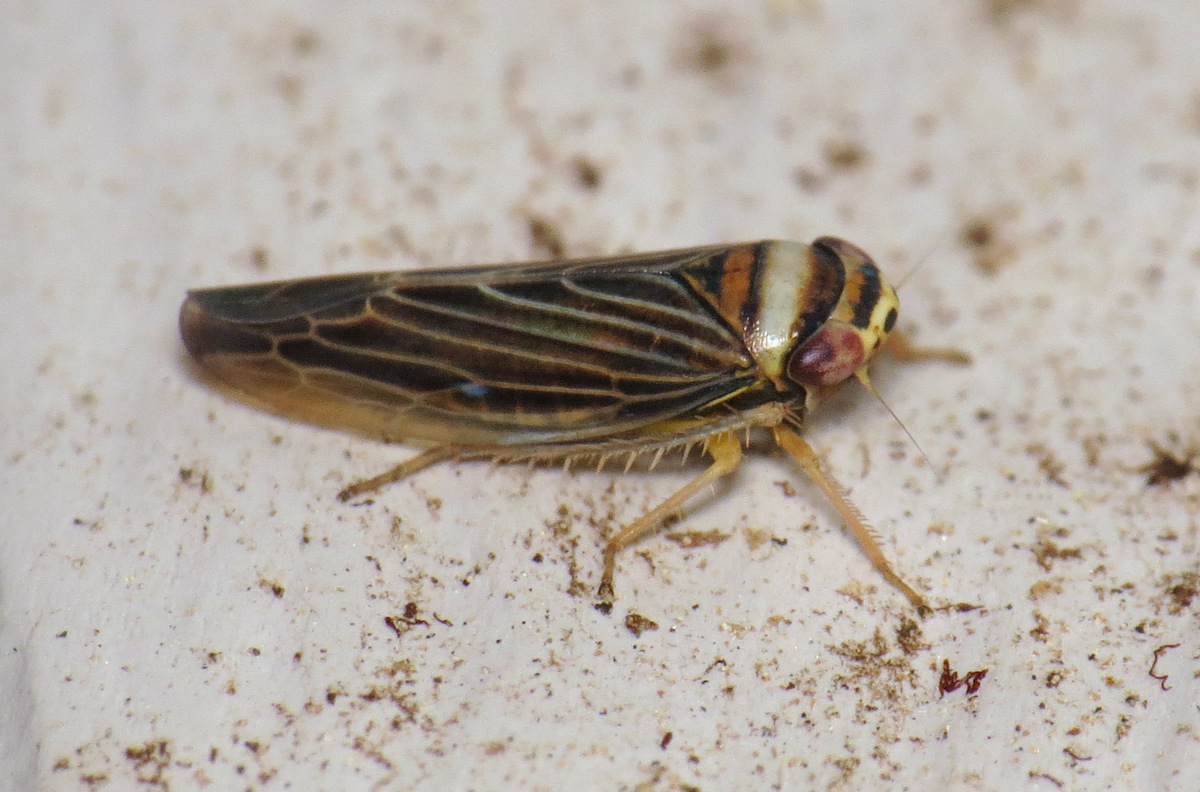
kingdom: Animalia
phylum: Arthropoda
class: Insecta
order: Hemiptera
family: Cicadellidae
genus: Colladonus
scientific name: Colladonus brunneus
